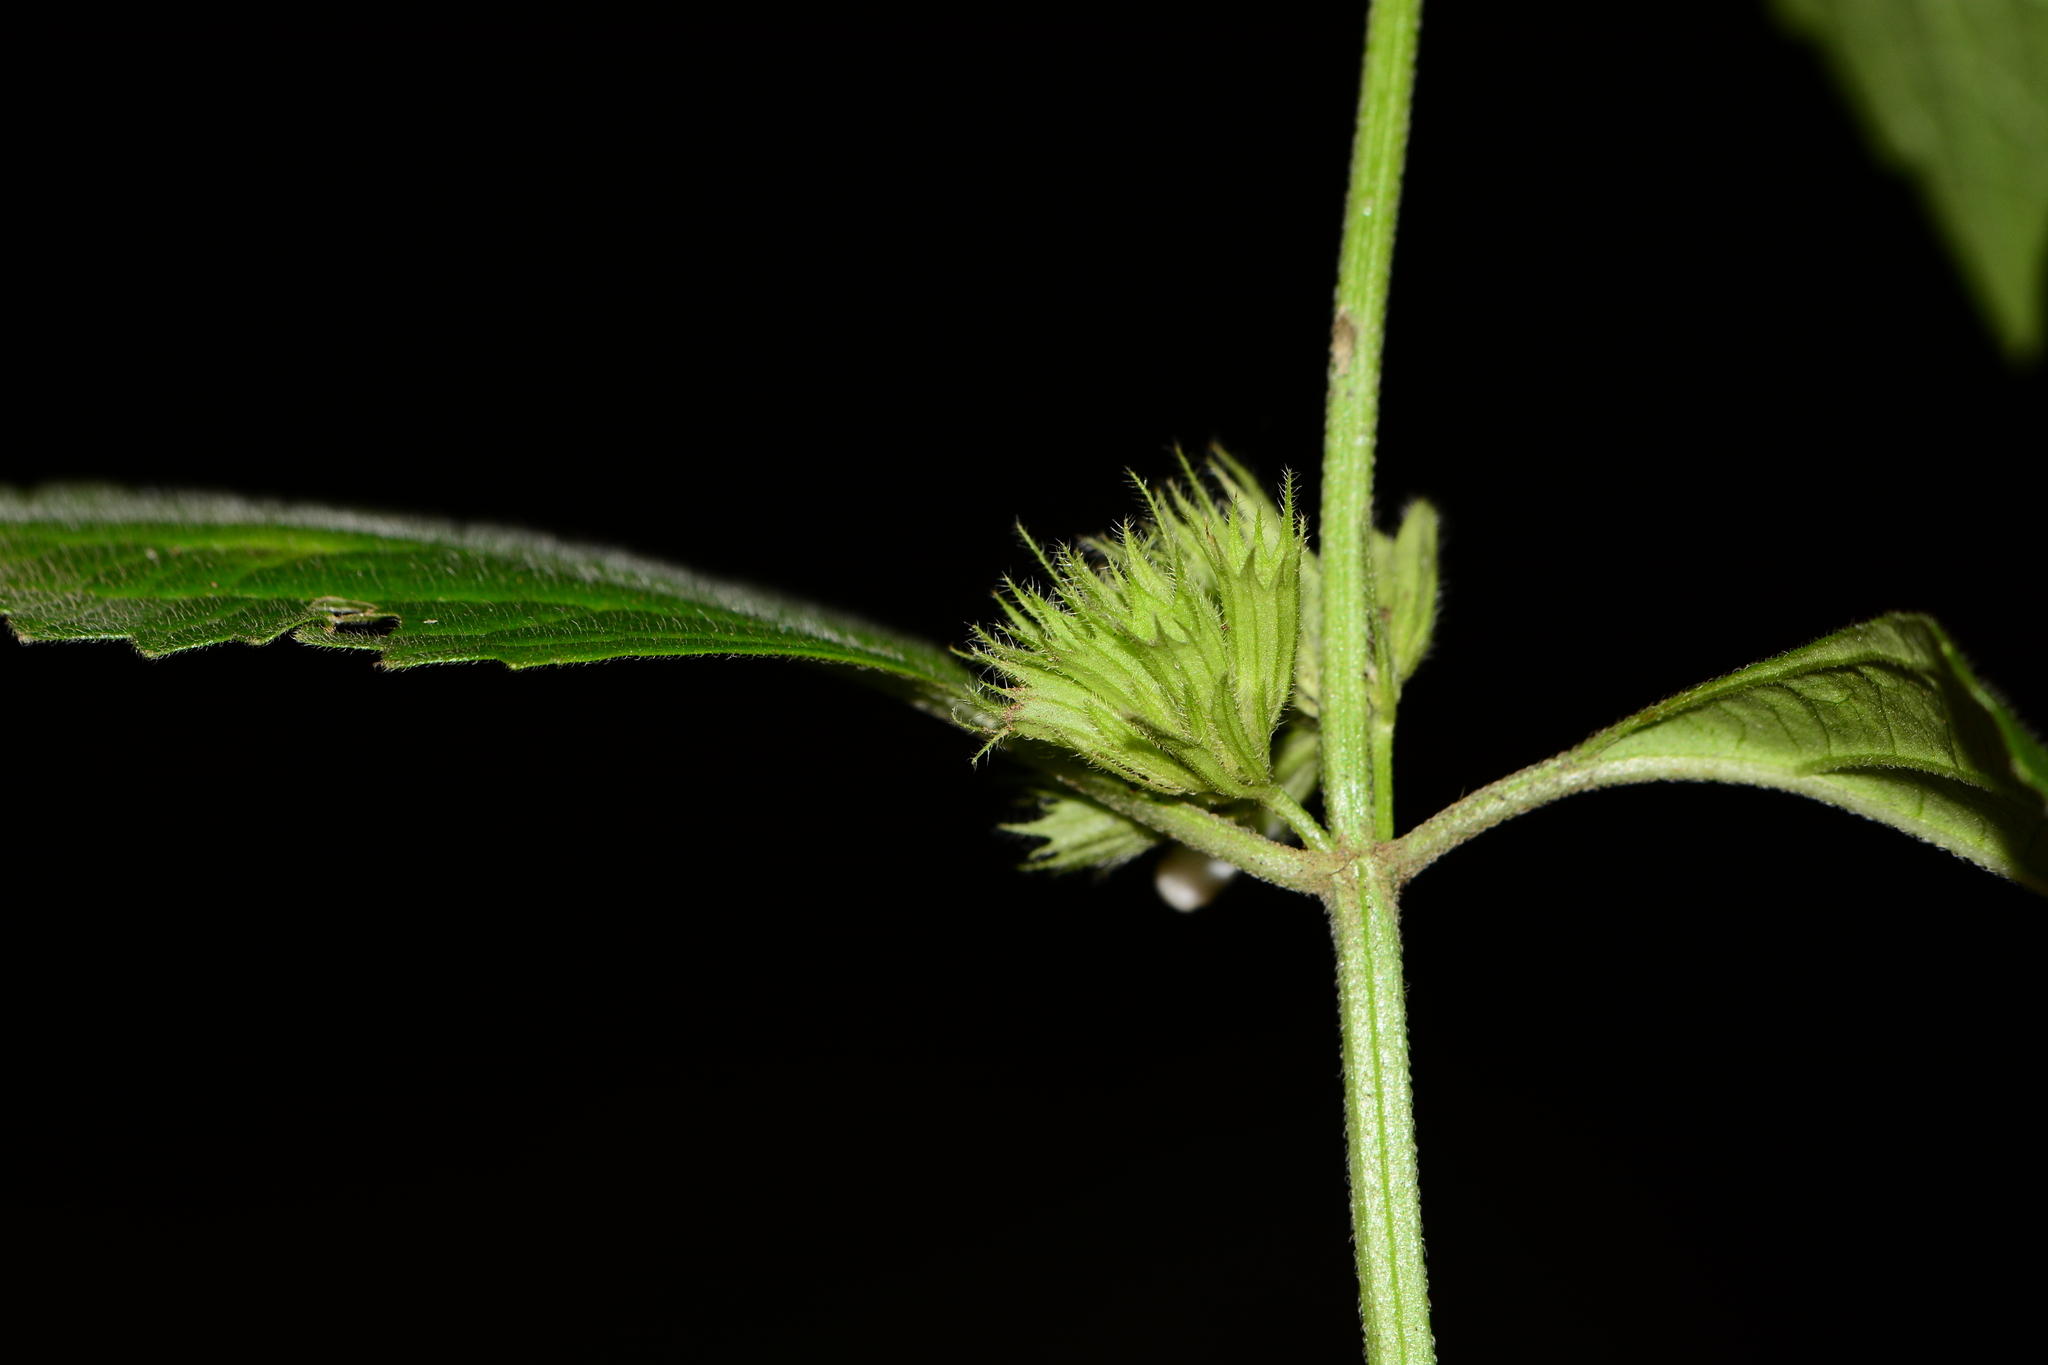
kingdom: Plantae
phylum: Tracheophyta
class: Magnoliopsida
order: Lamiales
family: Lamiaceae
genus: Leucas
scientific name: Leucas deodikarii
